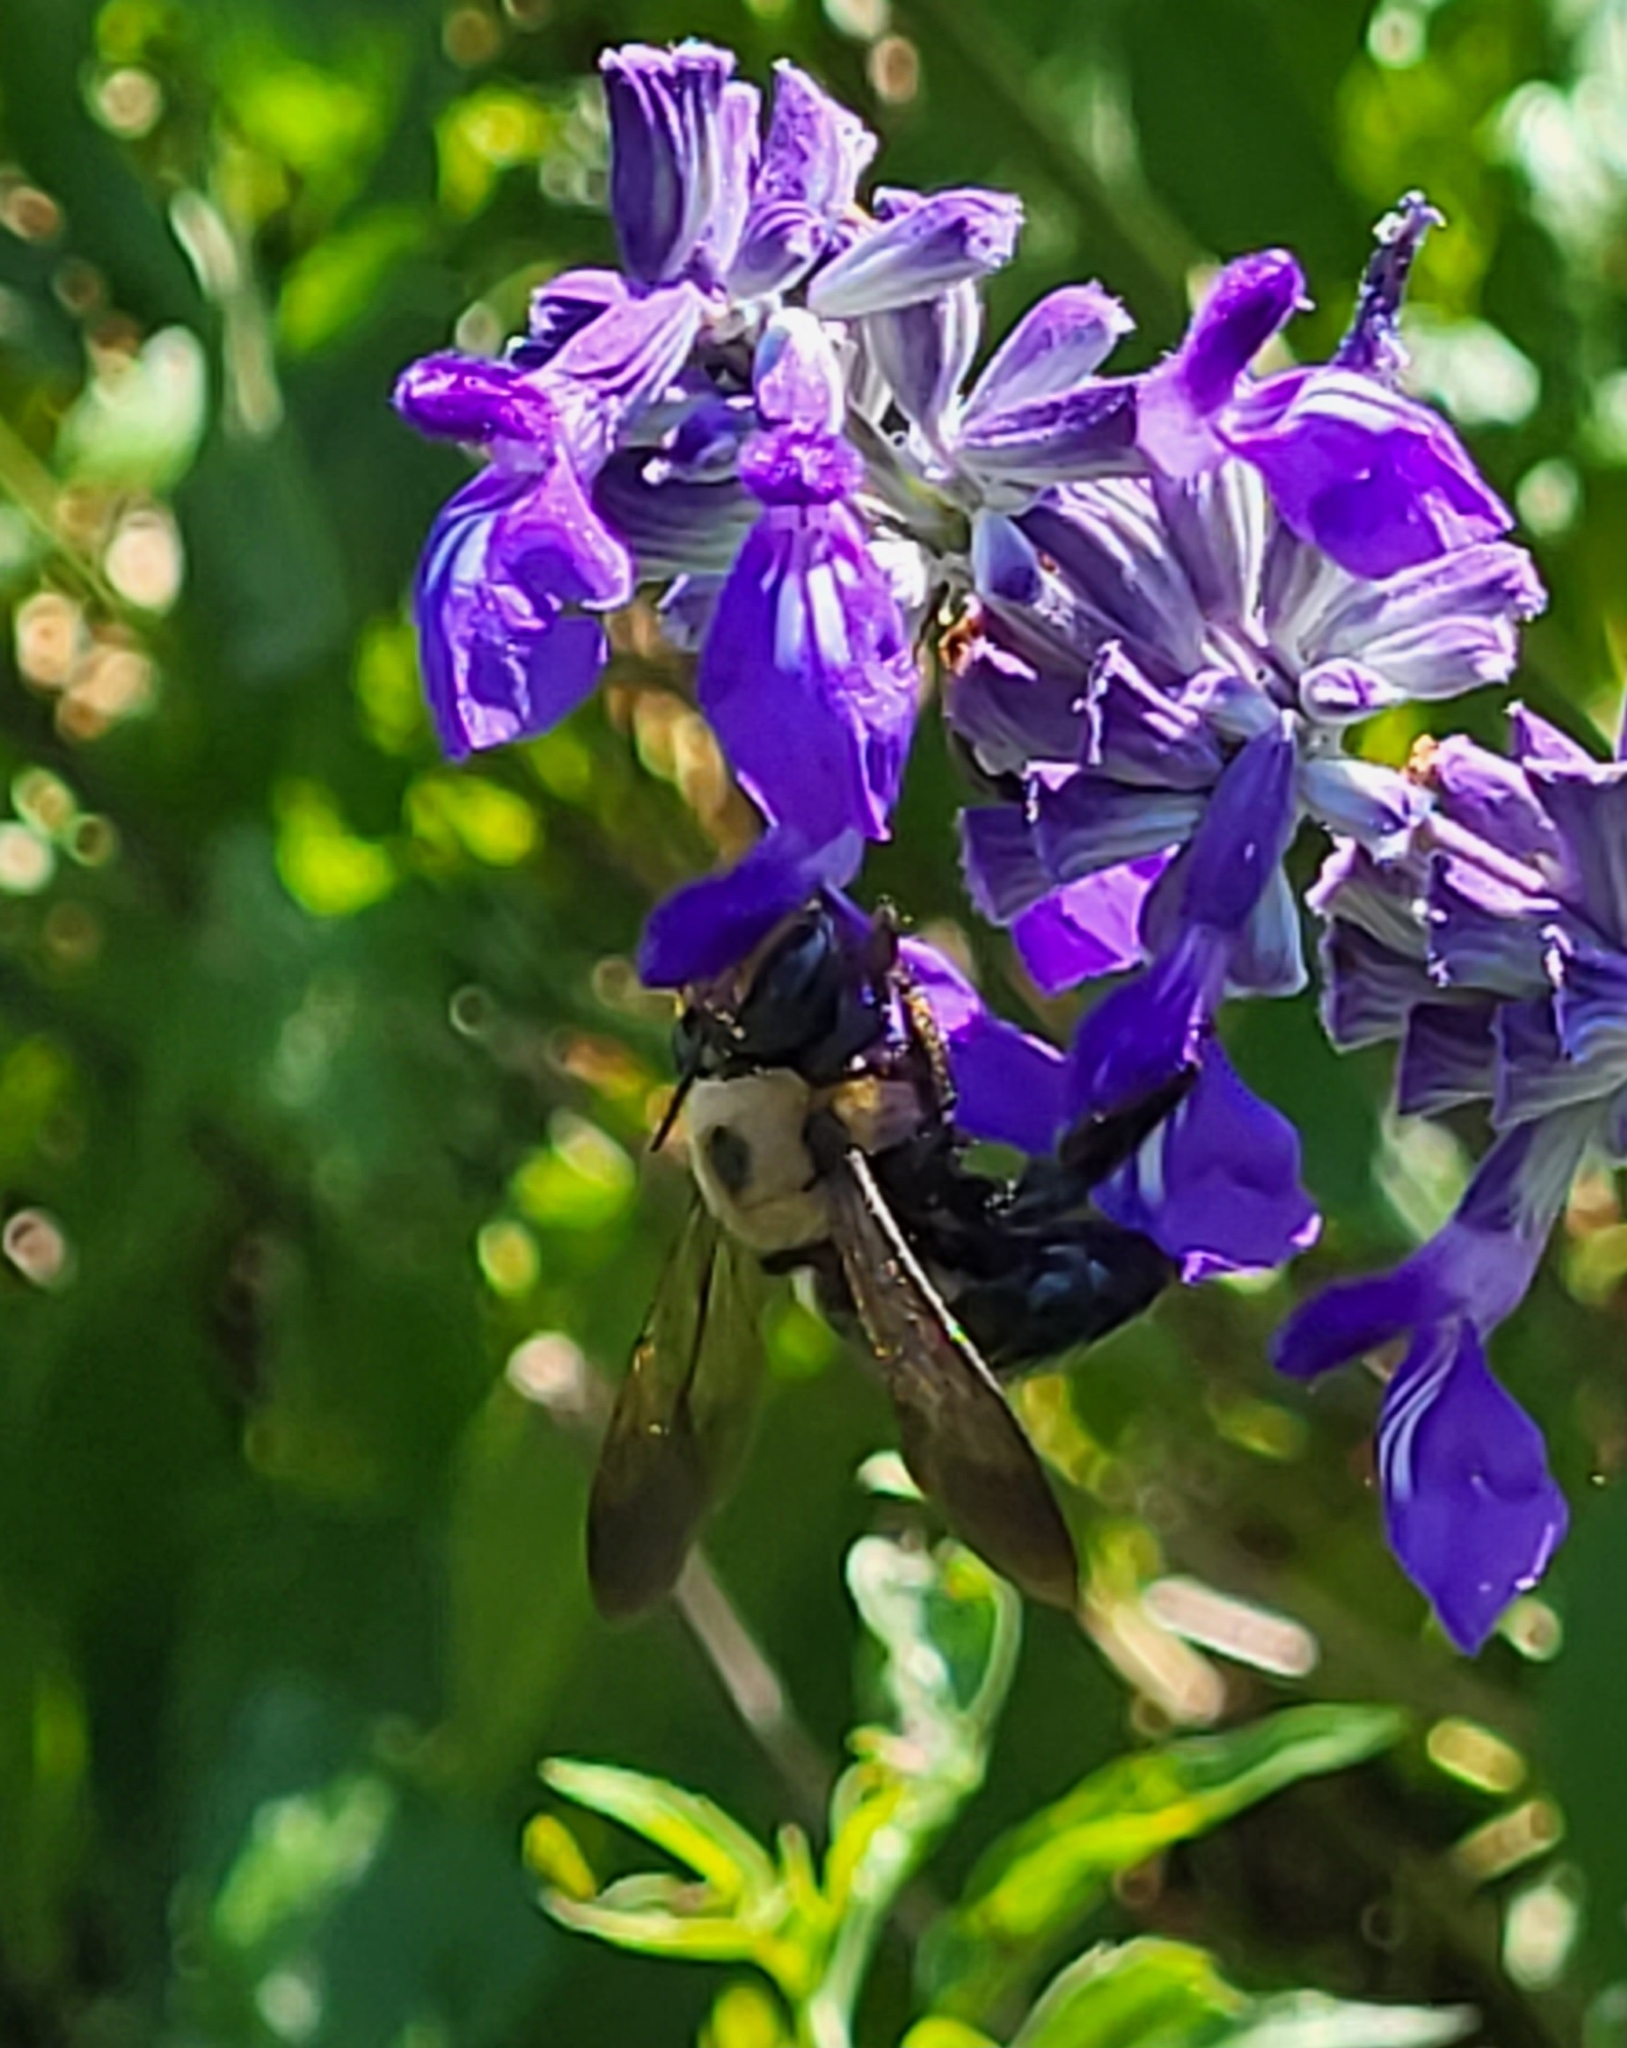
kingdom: Animalia
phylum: Arthropoda
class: Insecta
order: Hymenoptera
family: Apidae
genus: Xylocopa
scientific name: Xylocopa virginica
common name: Carpenter bee
